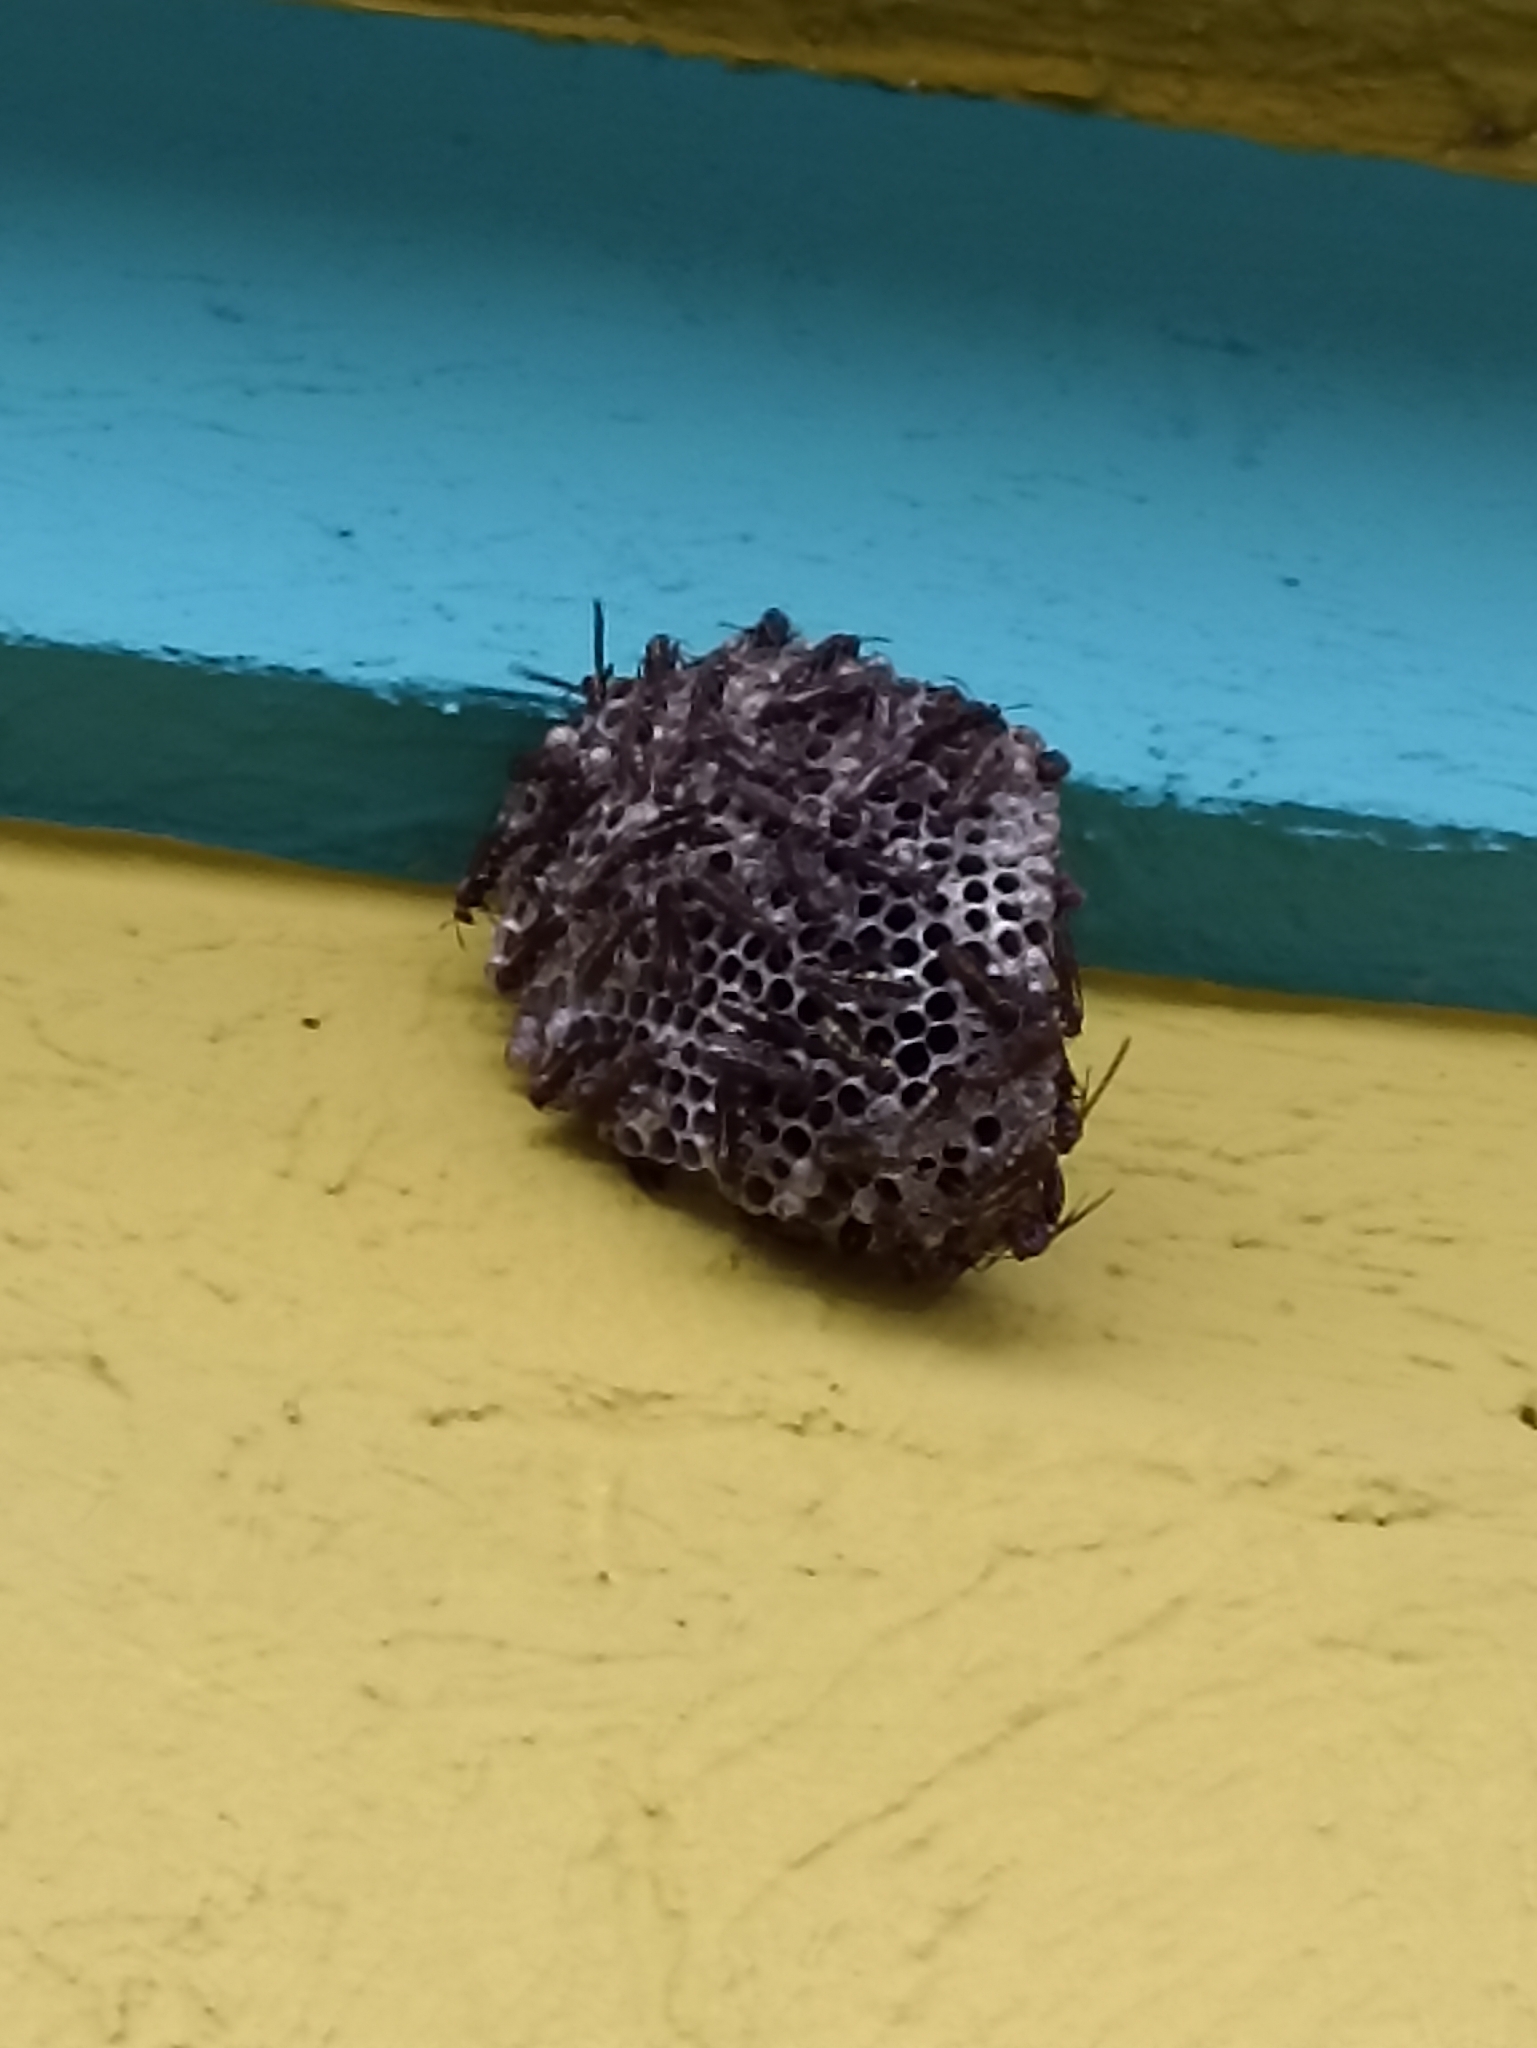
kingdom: Animalia
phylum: Arthropoda
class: Insecta
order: Hymenoptera
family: Eumenidae
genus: Polistes
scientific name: Polistes versicolor
